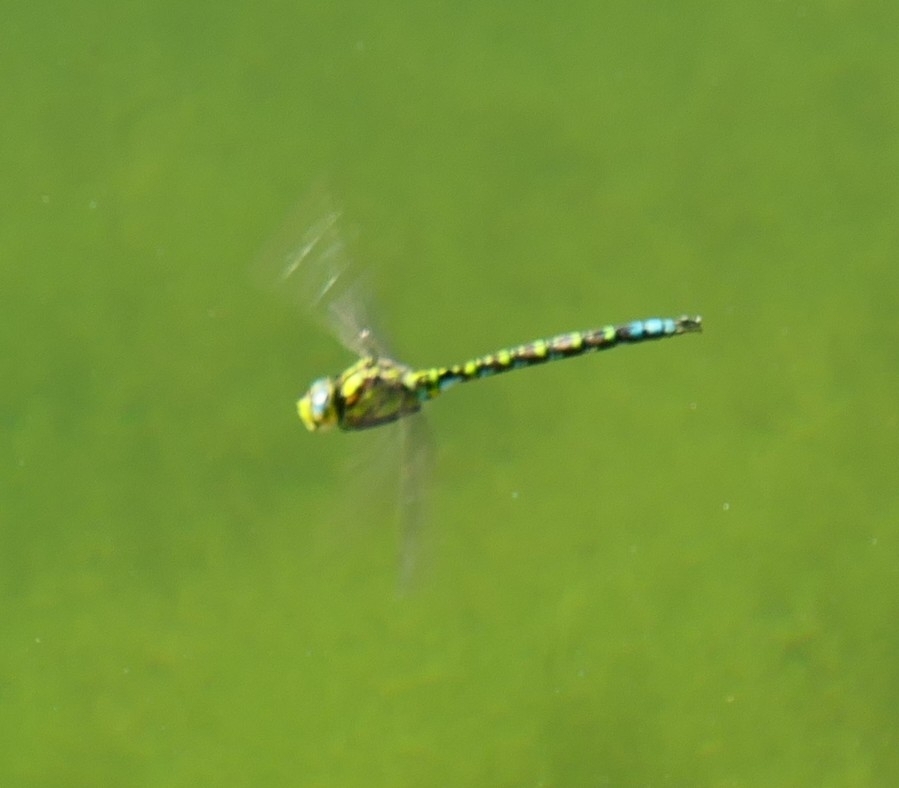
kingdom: Animalia
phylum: Arthropoda
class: Insecta
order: Odonata
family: Aeshnidae
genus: Aeshna
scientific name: Aeshna cyanea
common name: Southern hawker
